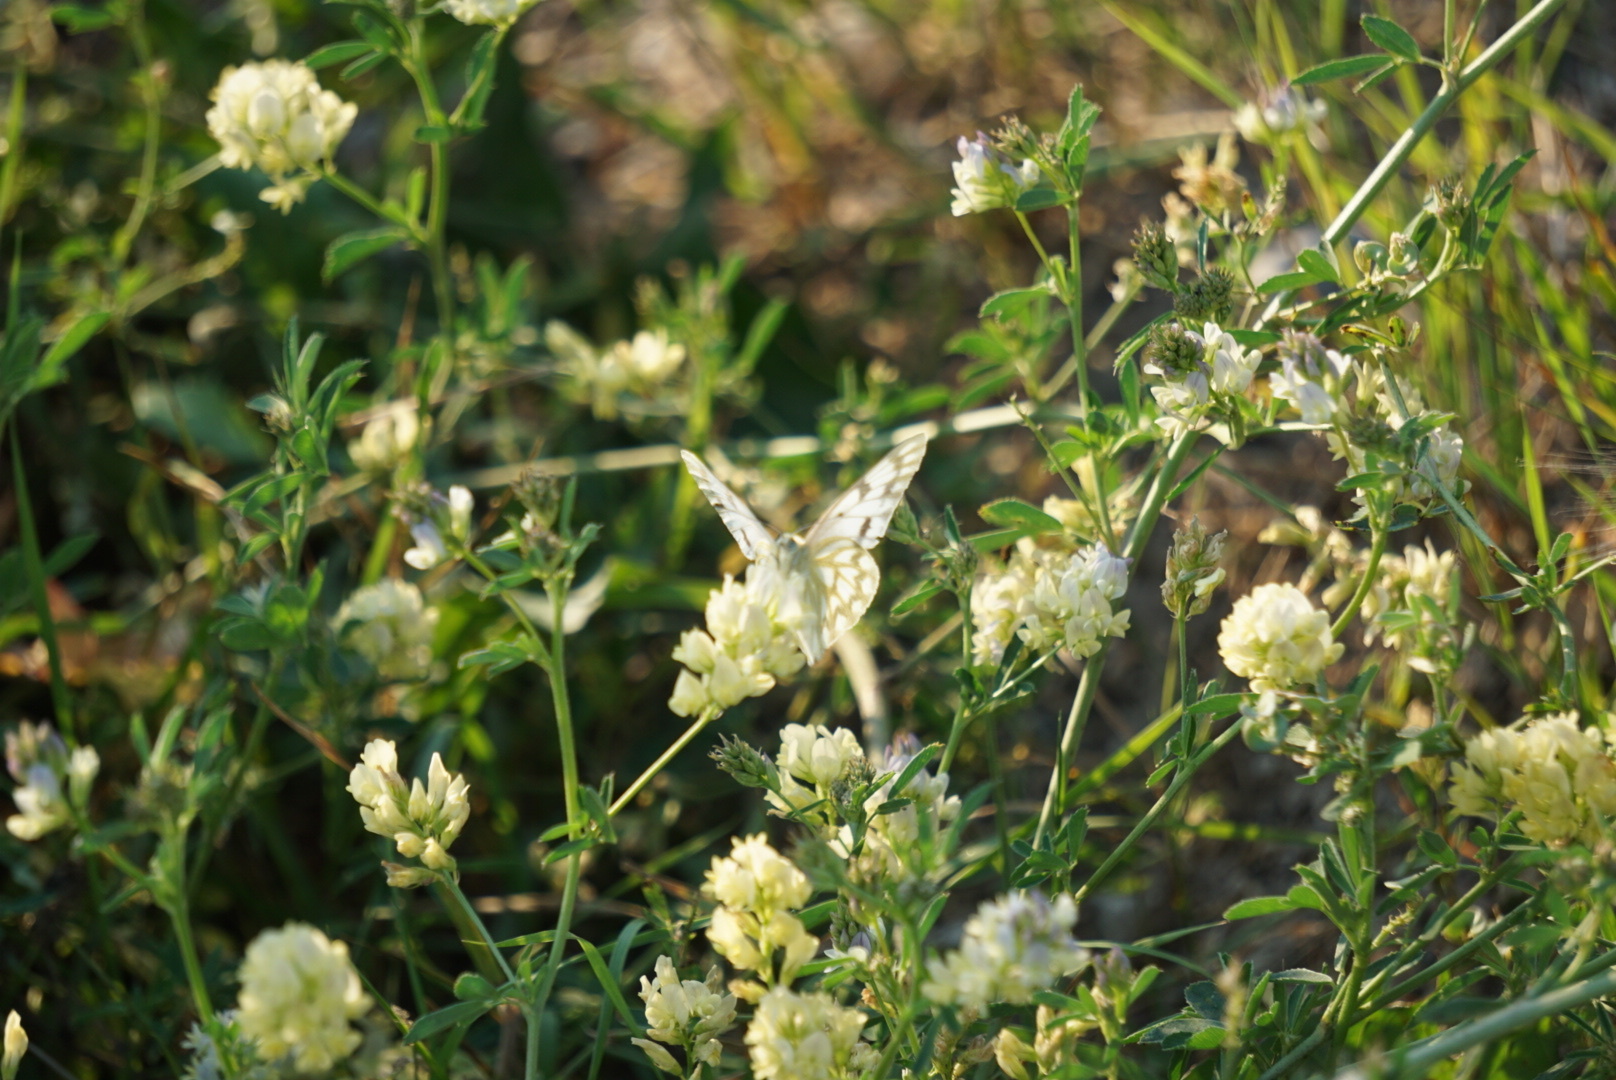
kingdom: Animalia
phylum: Arthropoda
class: Insecta
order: Lepidoptera
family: Pieridae
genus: Pontia
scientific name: Pontia occidentalis
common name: Western white
